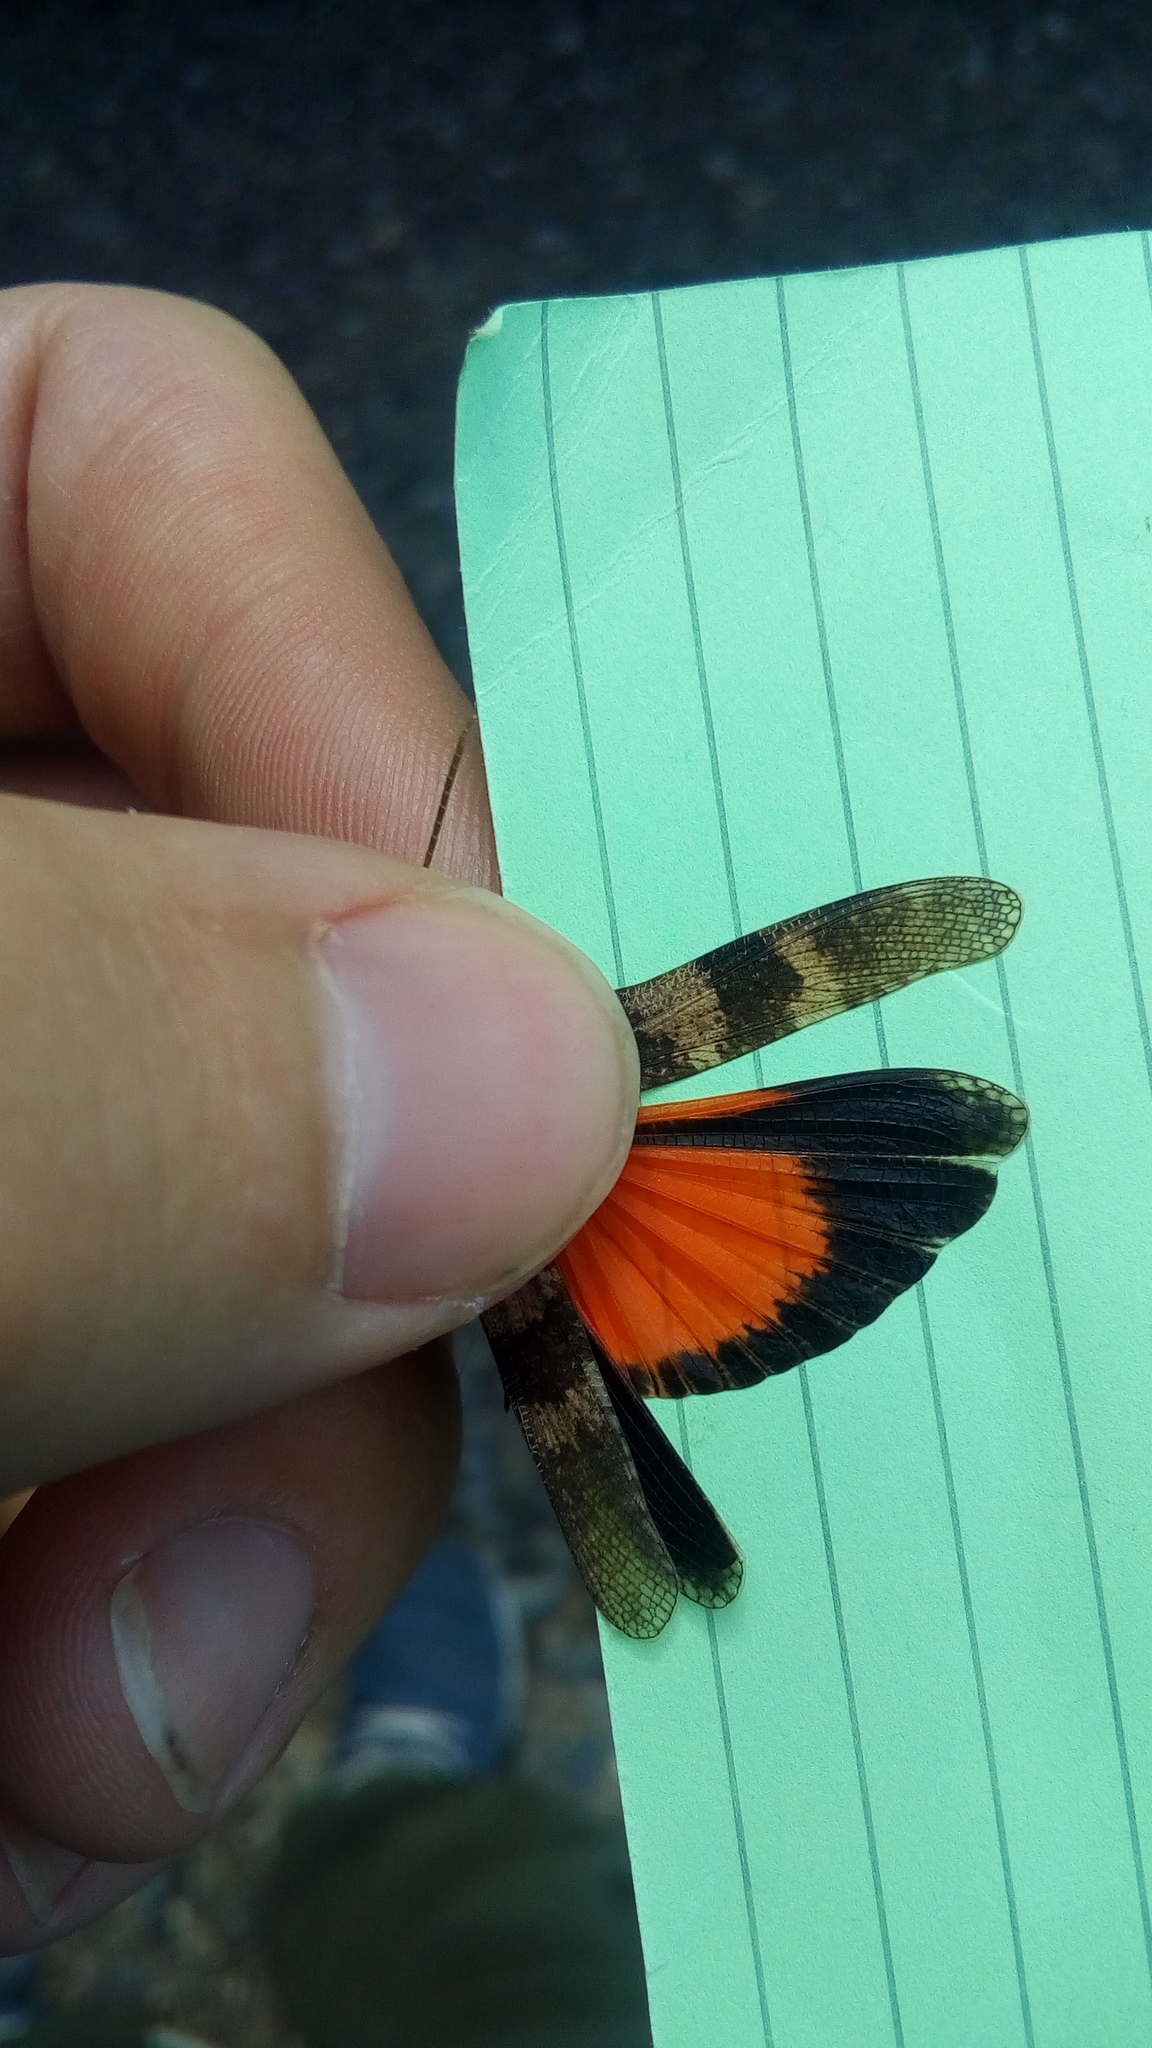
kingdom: Animalia
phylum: Arthropoda
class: Insecta
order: Orthoptera
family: Acrididae
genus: Oedipoda
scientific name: Oedipoda germanica
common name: Red band-winged grasshopper
